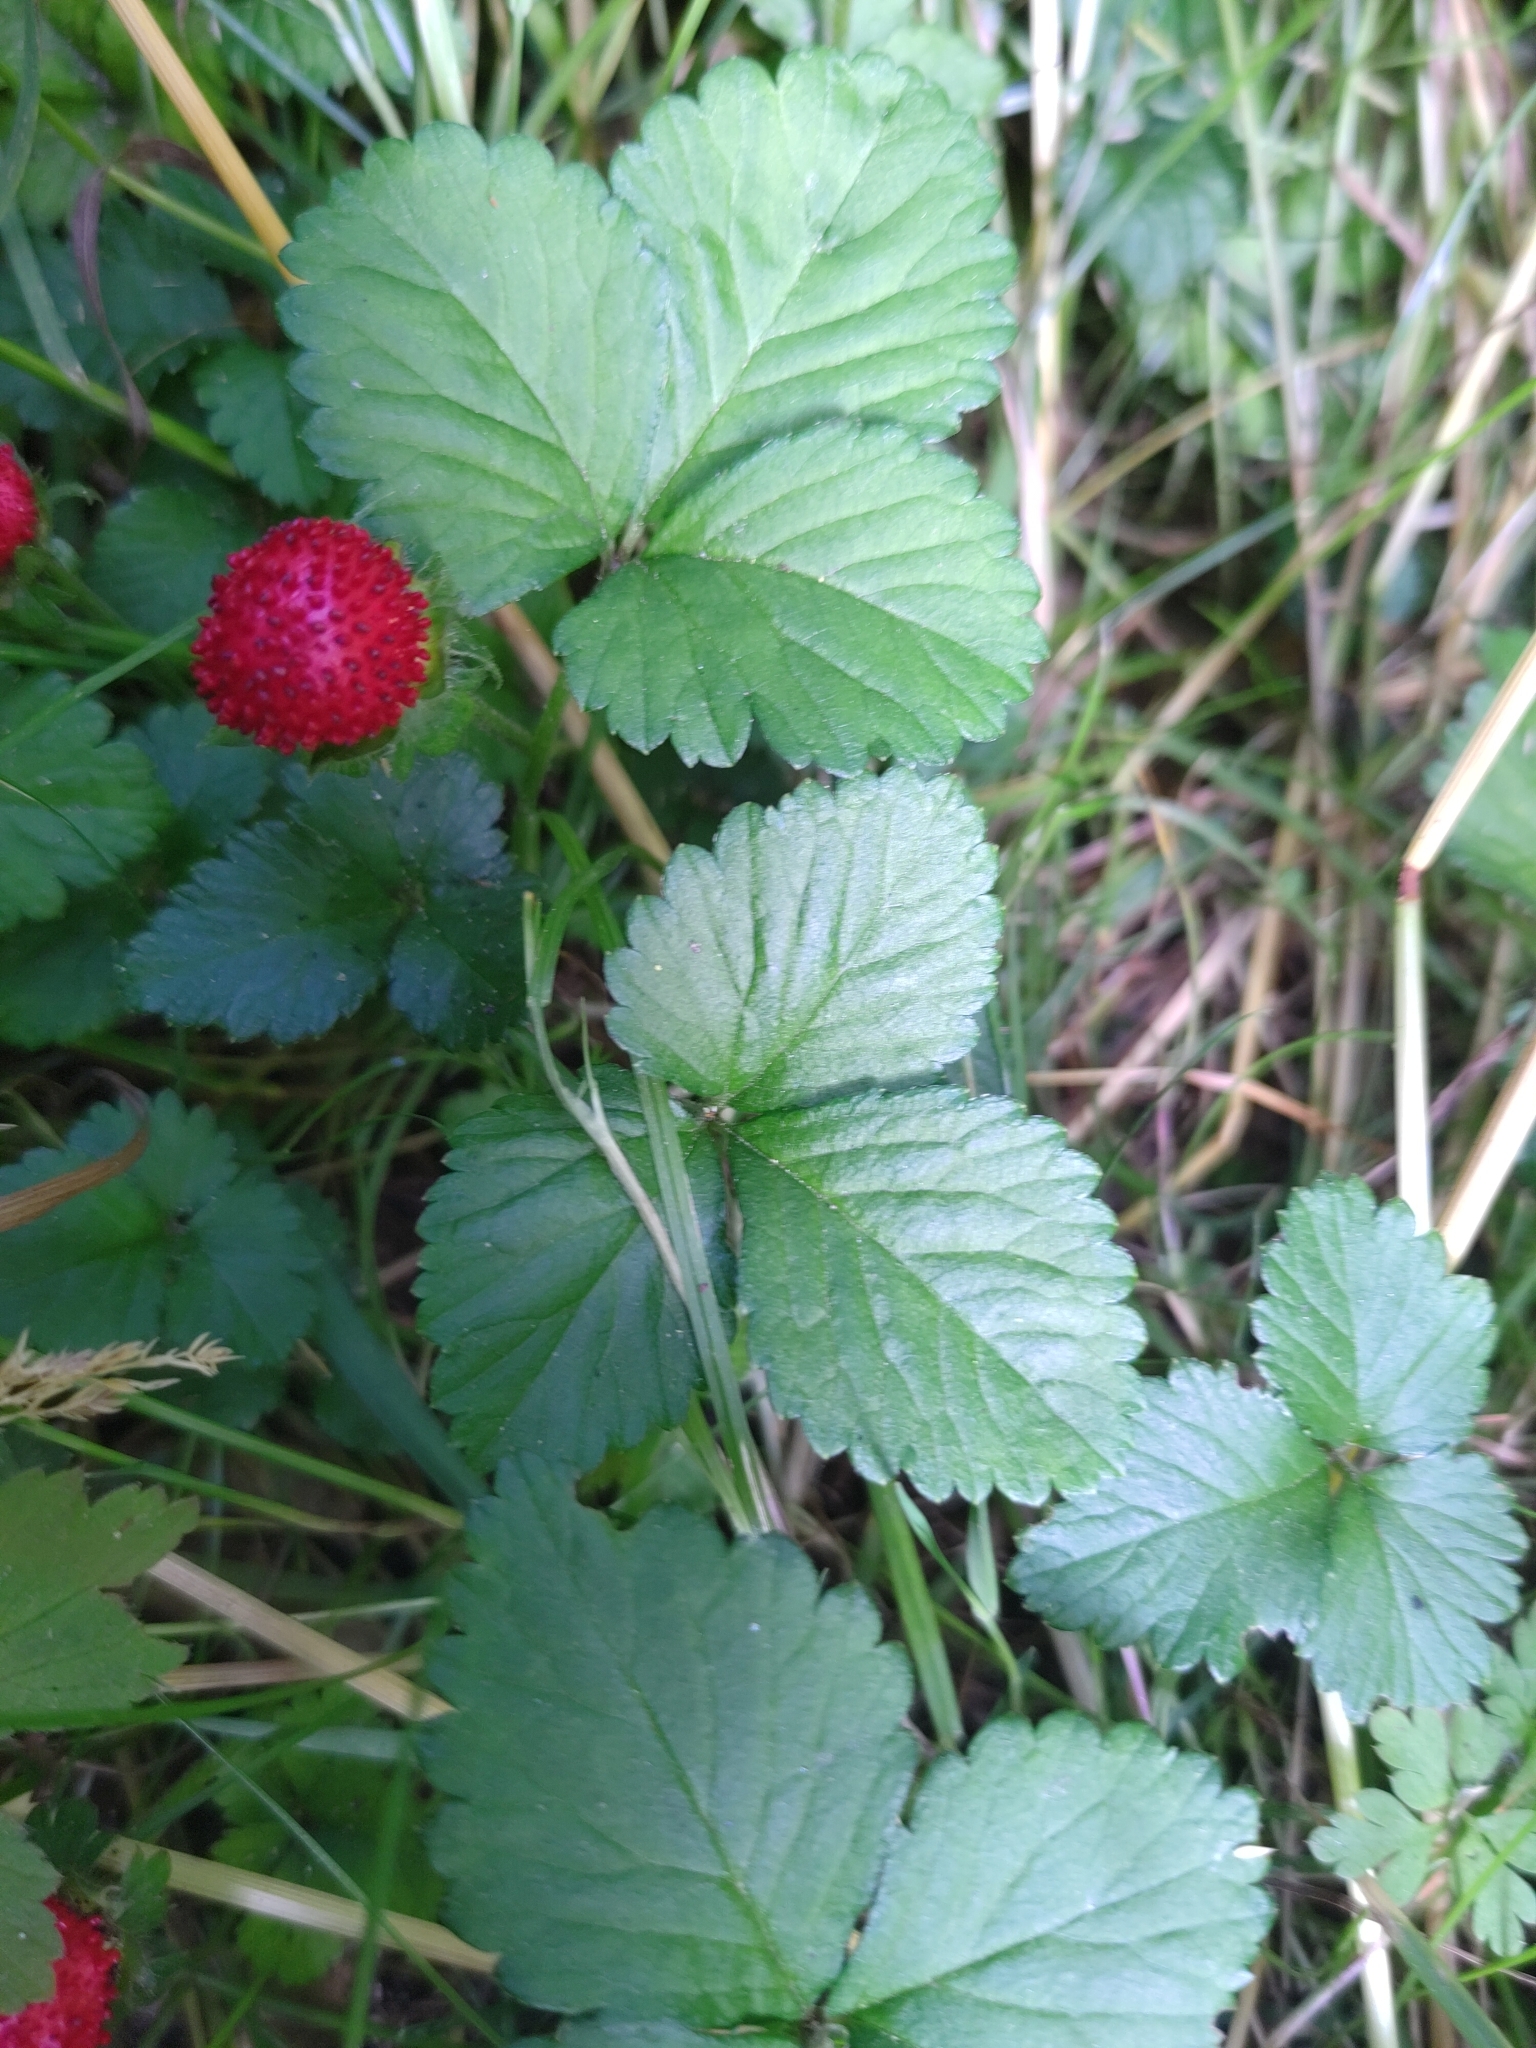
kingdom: Plantae
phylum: Tracheophyta
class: Magnoliopsida
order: Rosales
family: Rosaceae
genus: Potentilla
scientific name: Potentilla indica
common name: Yellow-flowered strawberry
